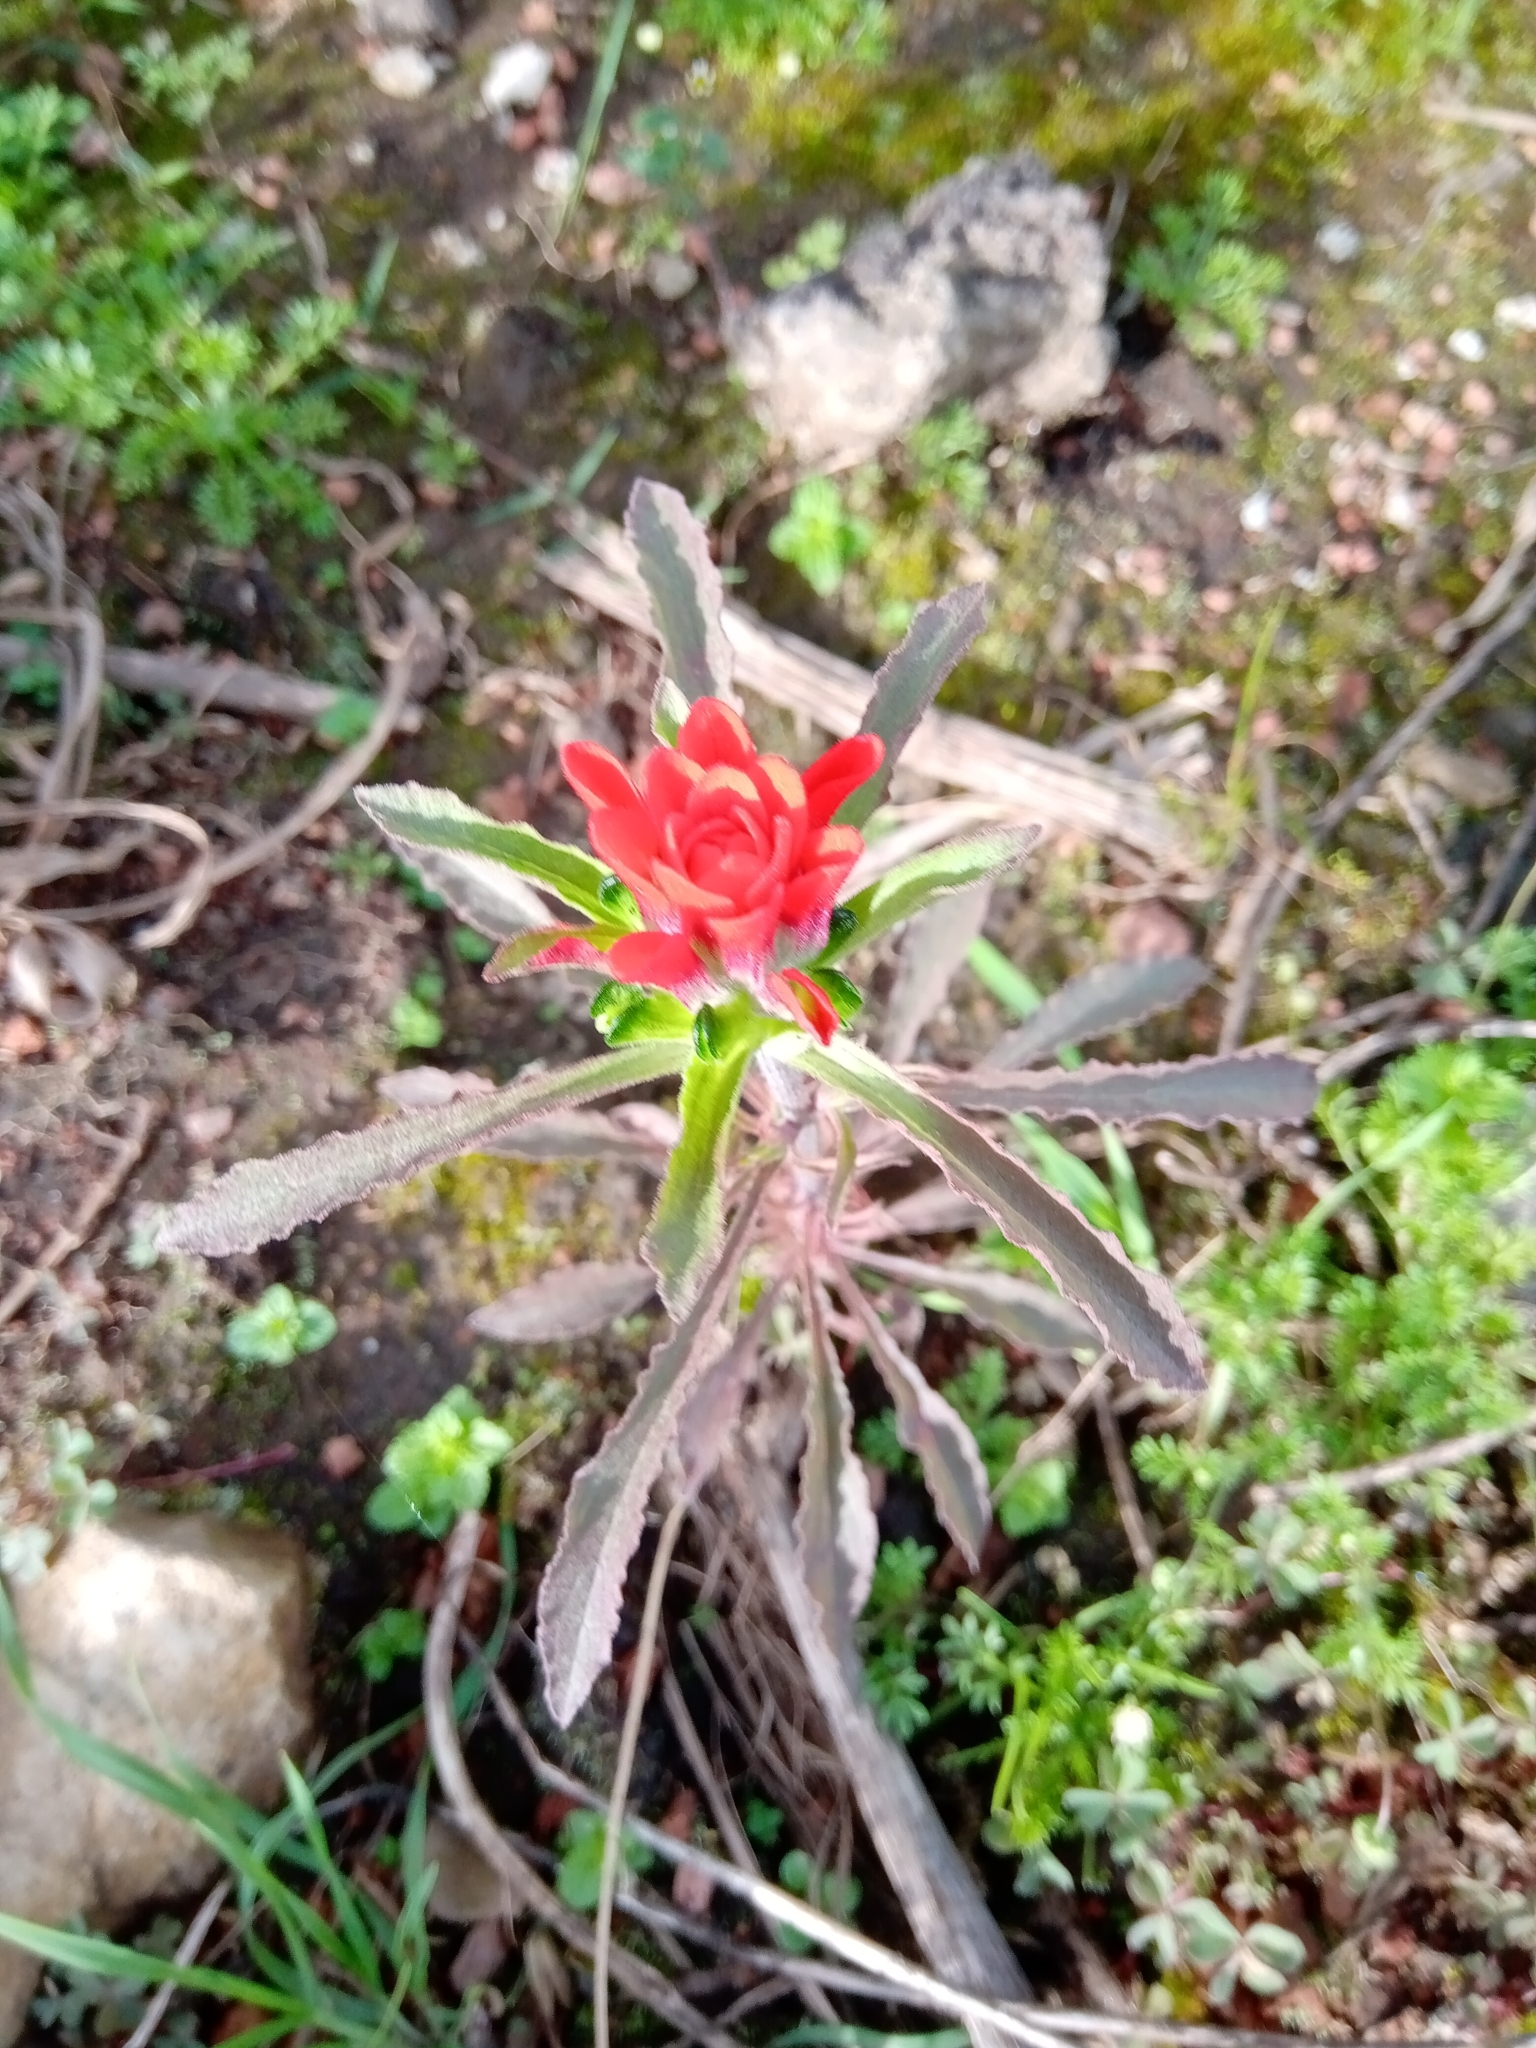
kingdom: Plantae
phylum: Tracheophyta
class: Magnoliopsida
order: Lamiales
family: Orobanchaceae
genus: Castilleja
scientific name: Castilleja arvensis
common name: Indian paintbrush
